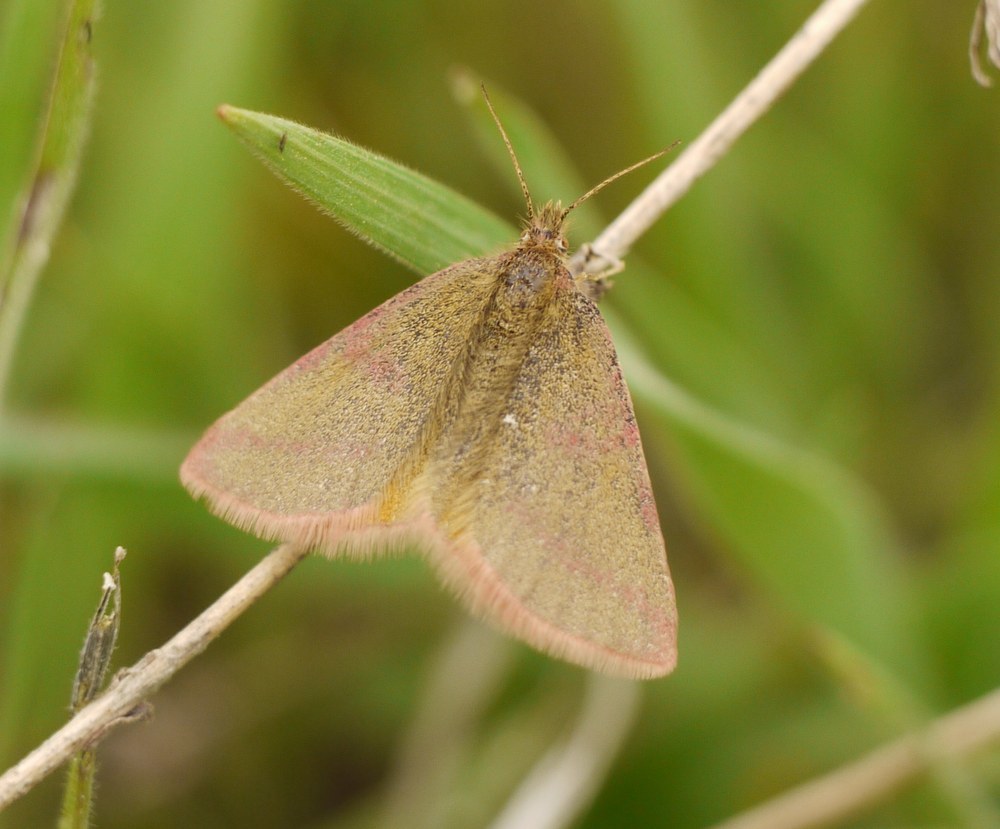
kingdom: Animalia
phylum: Arthropoda
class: Insecta
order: Lepidoptera
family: Geometridae
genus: Lythria
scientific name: Lythria purpuraria
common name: Purple-barred yellow
